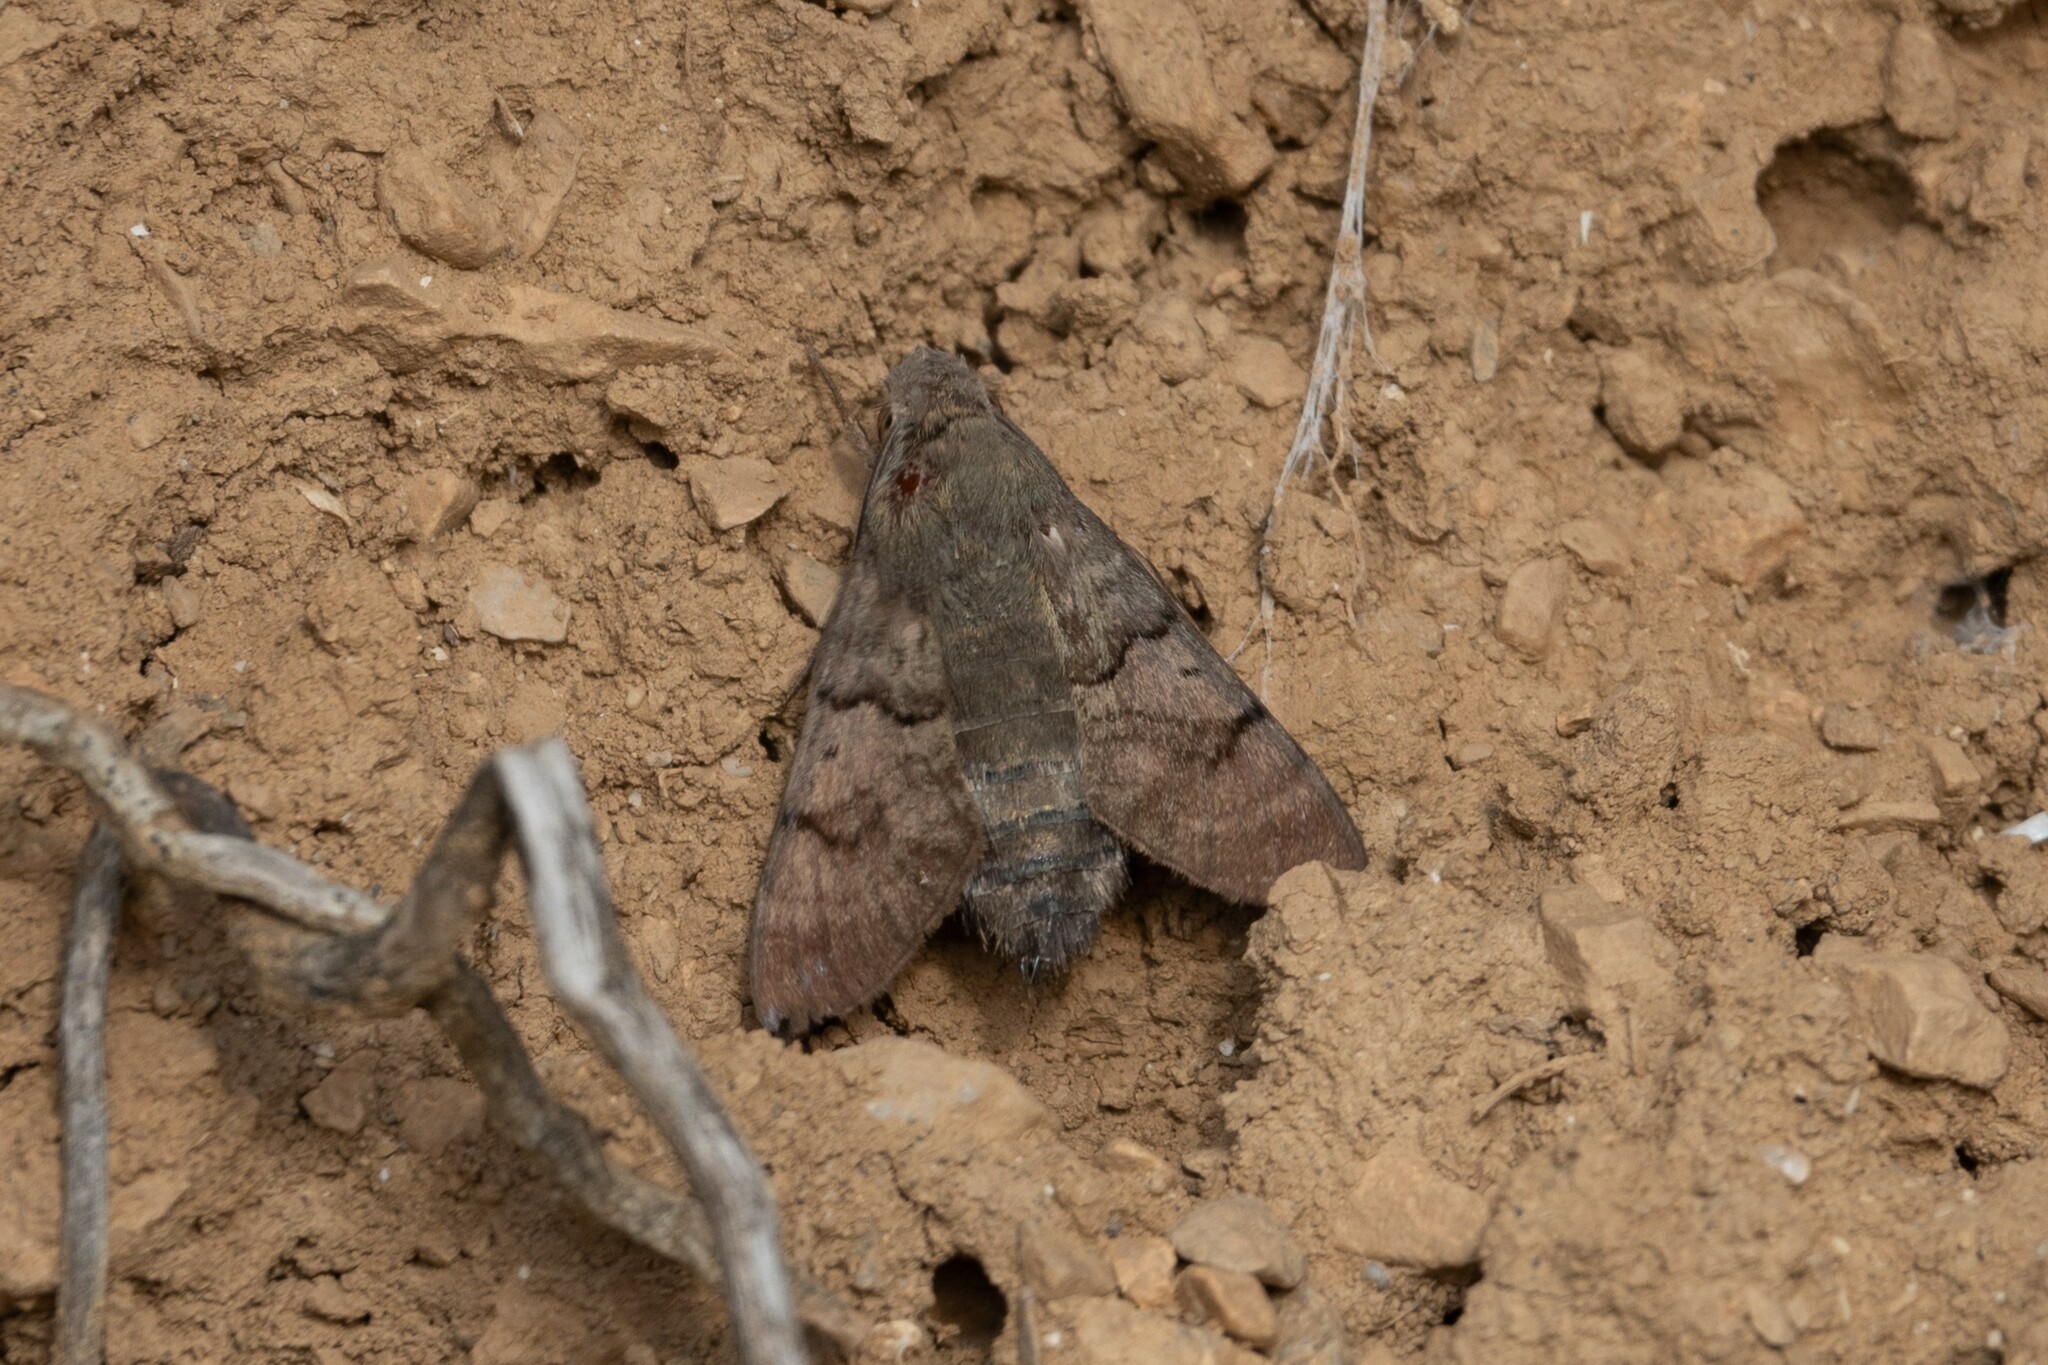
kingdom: Animalia
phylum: Arthropoda
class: Insecta
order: Lepidoptera
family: Sphingidae
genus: Macroglossum
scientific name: Macroglossum stellatarum
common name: Humming-bird hawk-moth
